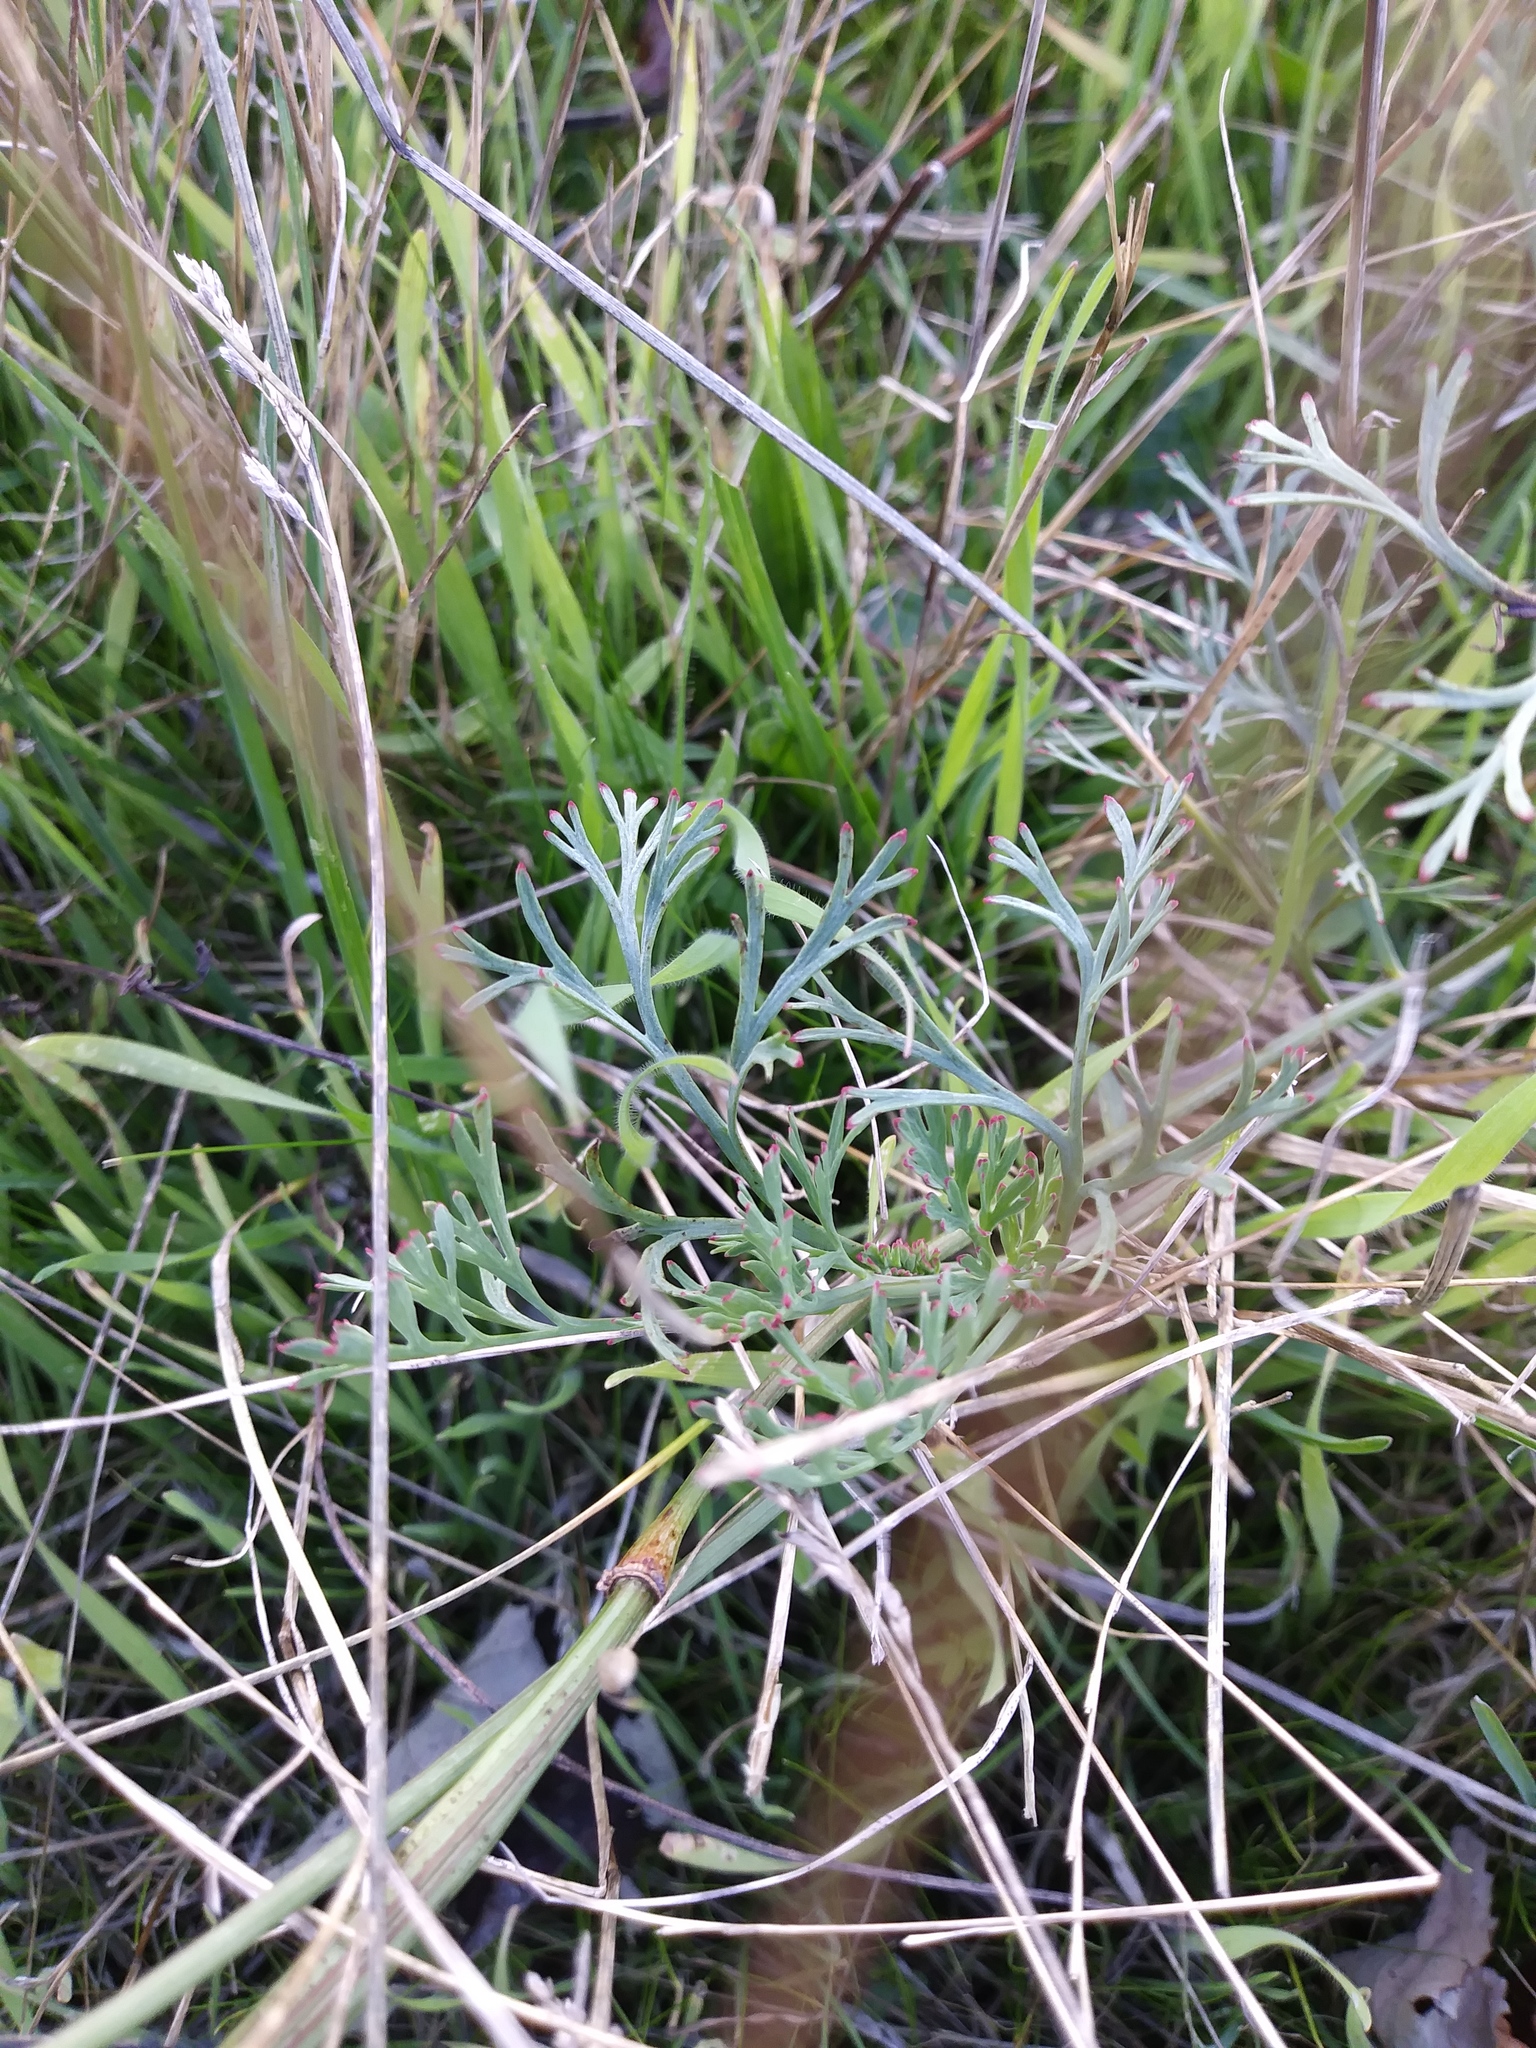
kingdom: Plantae
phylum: Tracheophyta
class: Magnoliopsida
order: Ranunculales
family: Papaveraceae
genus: Eschscholzia
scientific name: Eschscholzia californica
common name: California poppy
